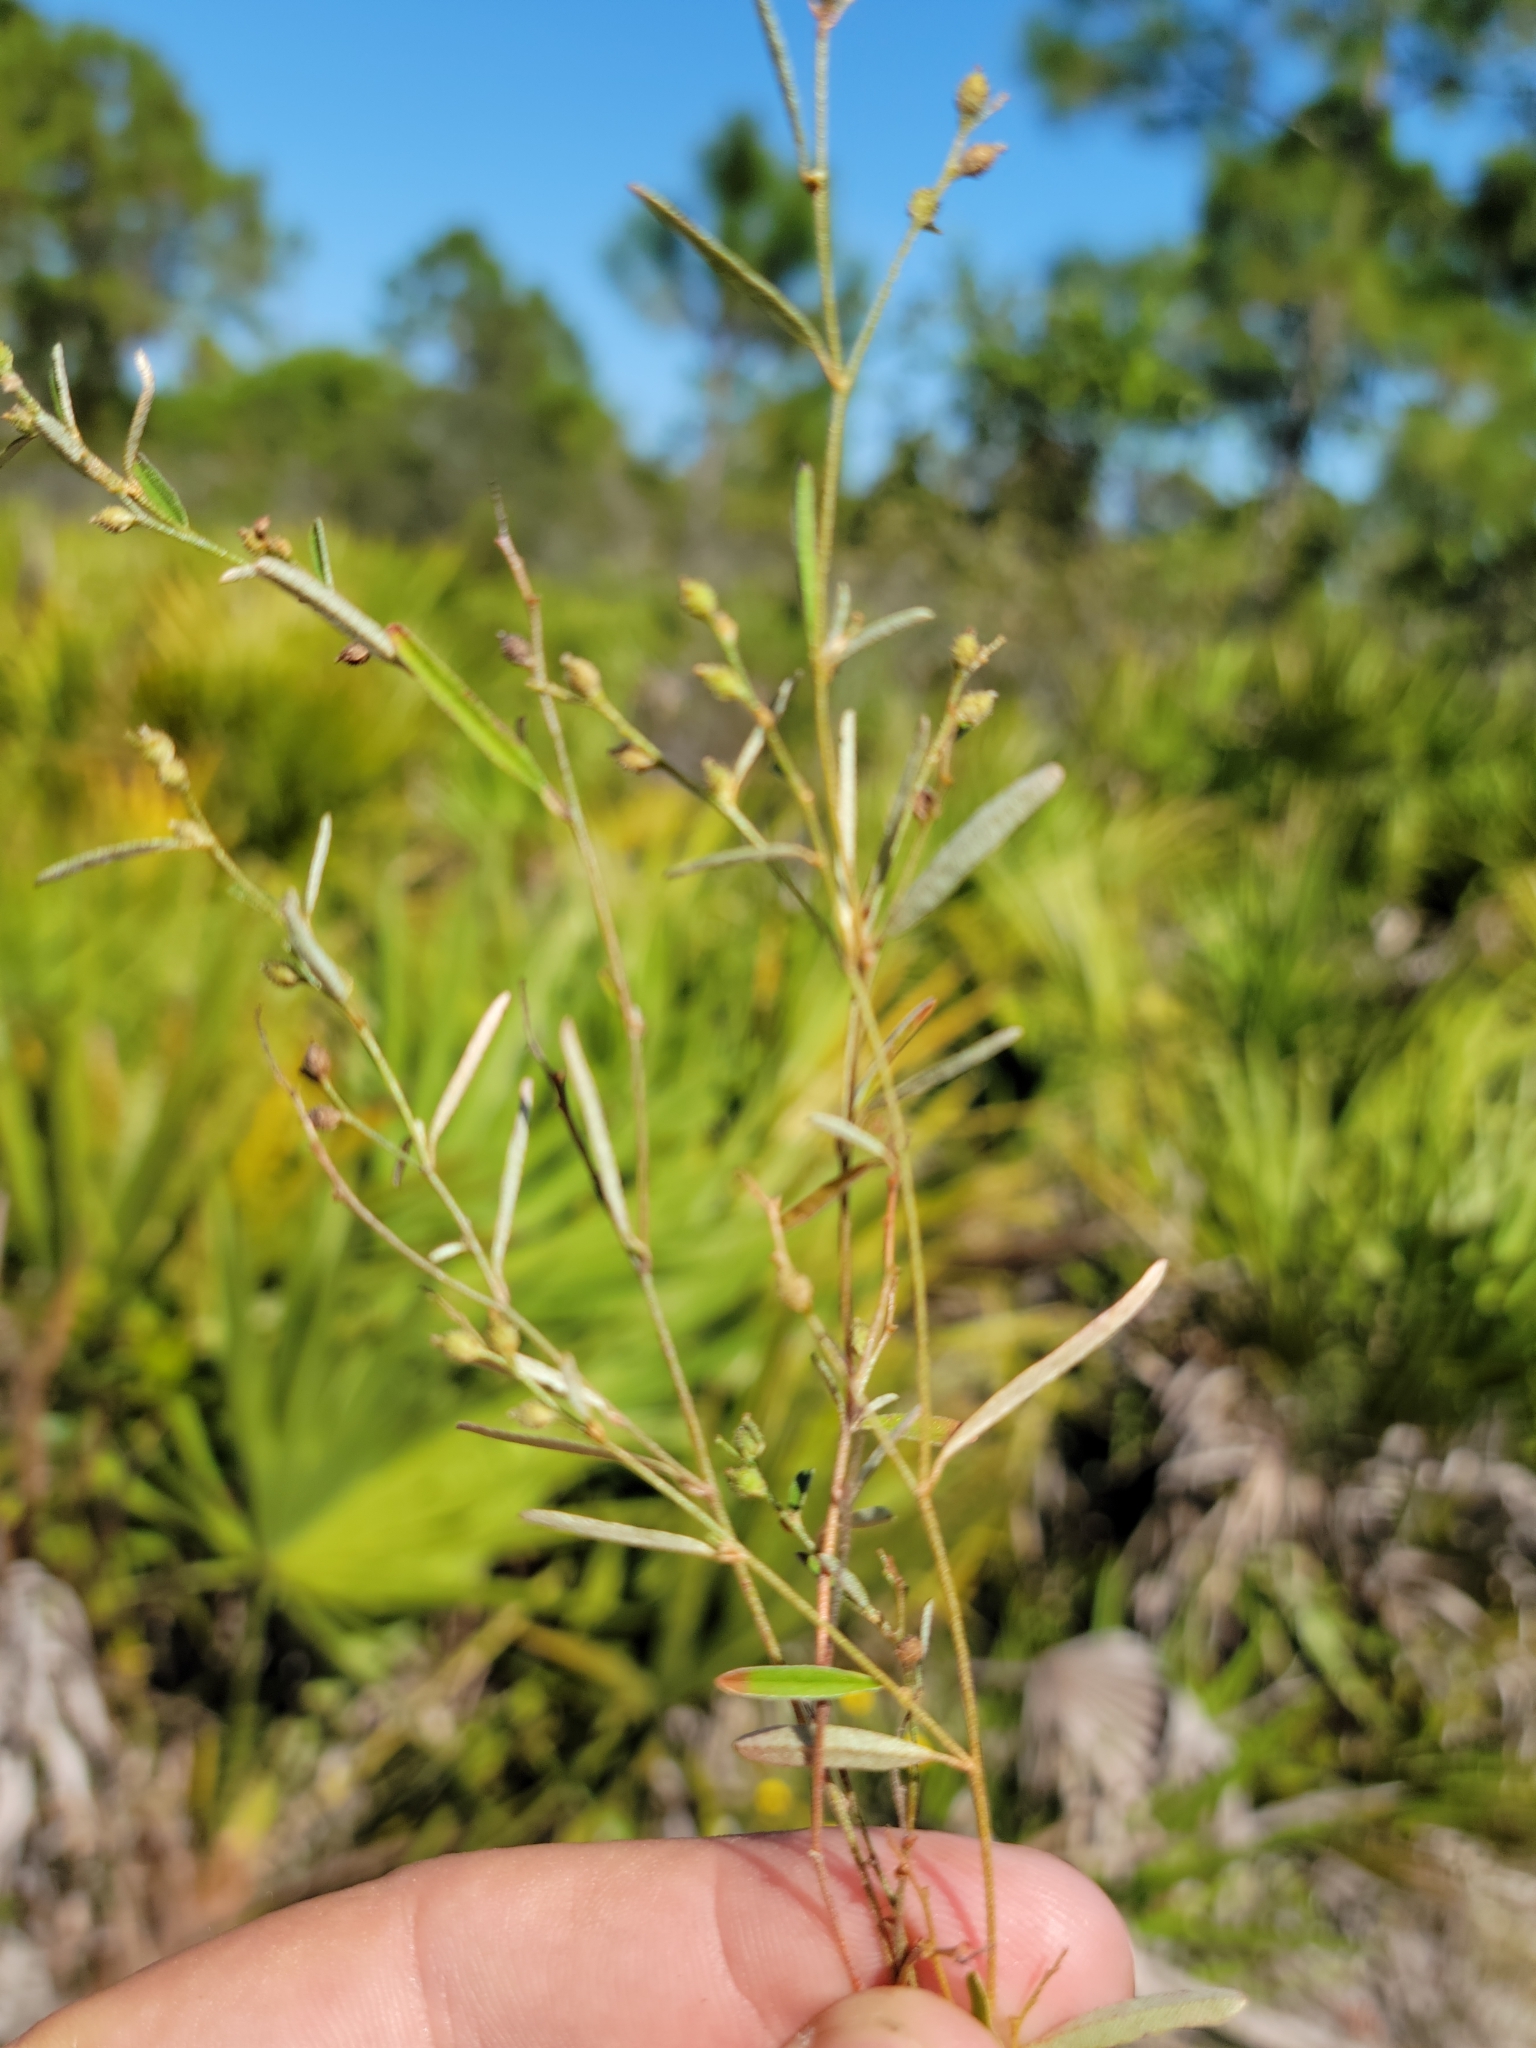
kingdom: Plantae
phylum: Tracheophyta
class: Magnoliopsida
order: Malpighiales
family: Euphorbiaceae
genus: Croton
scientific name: Croton michauxii
